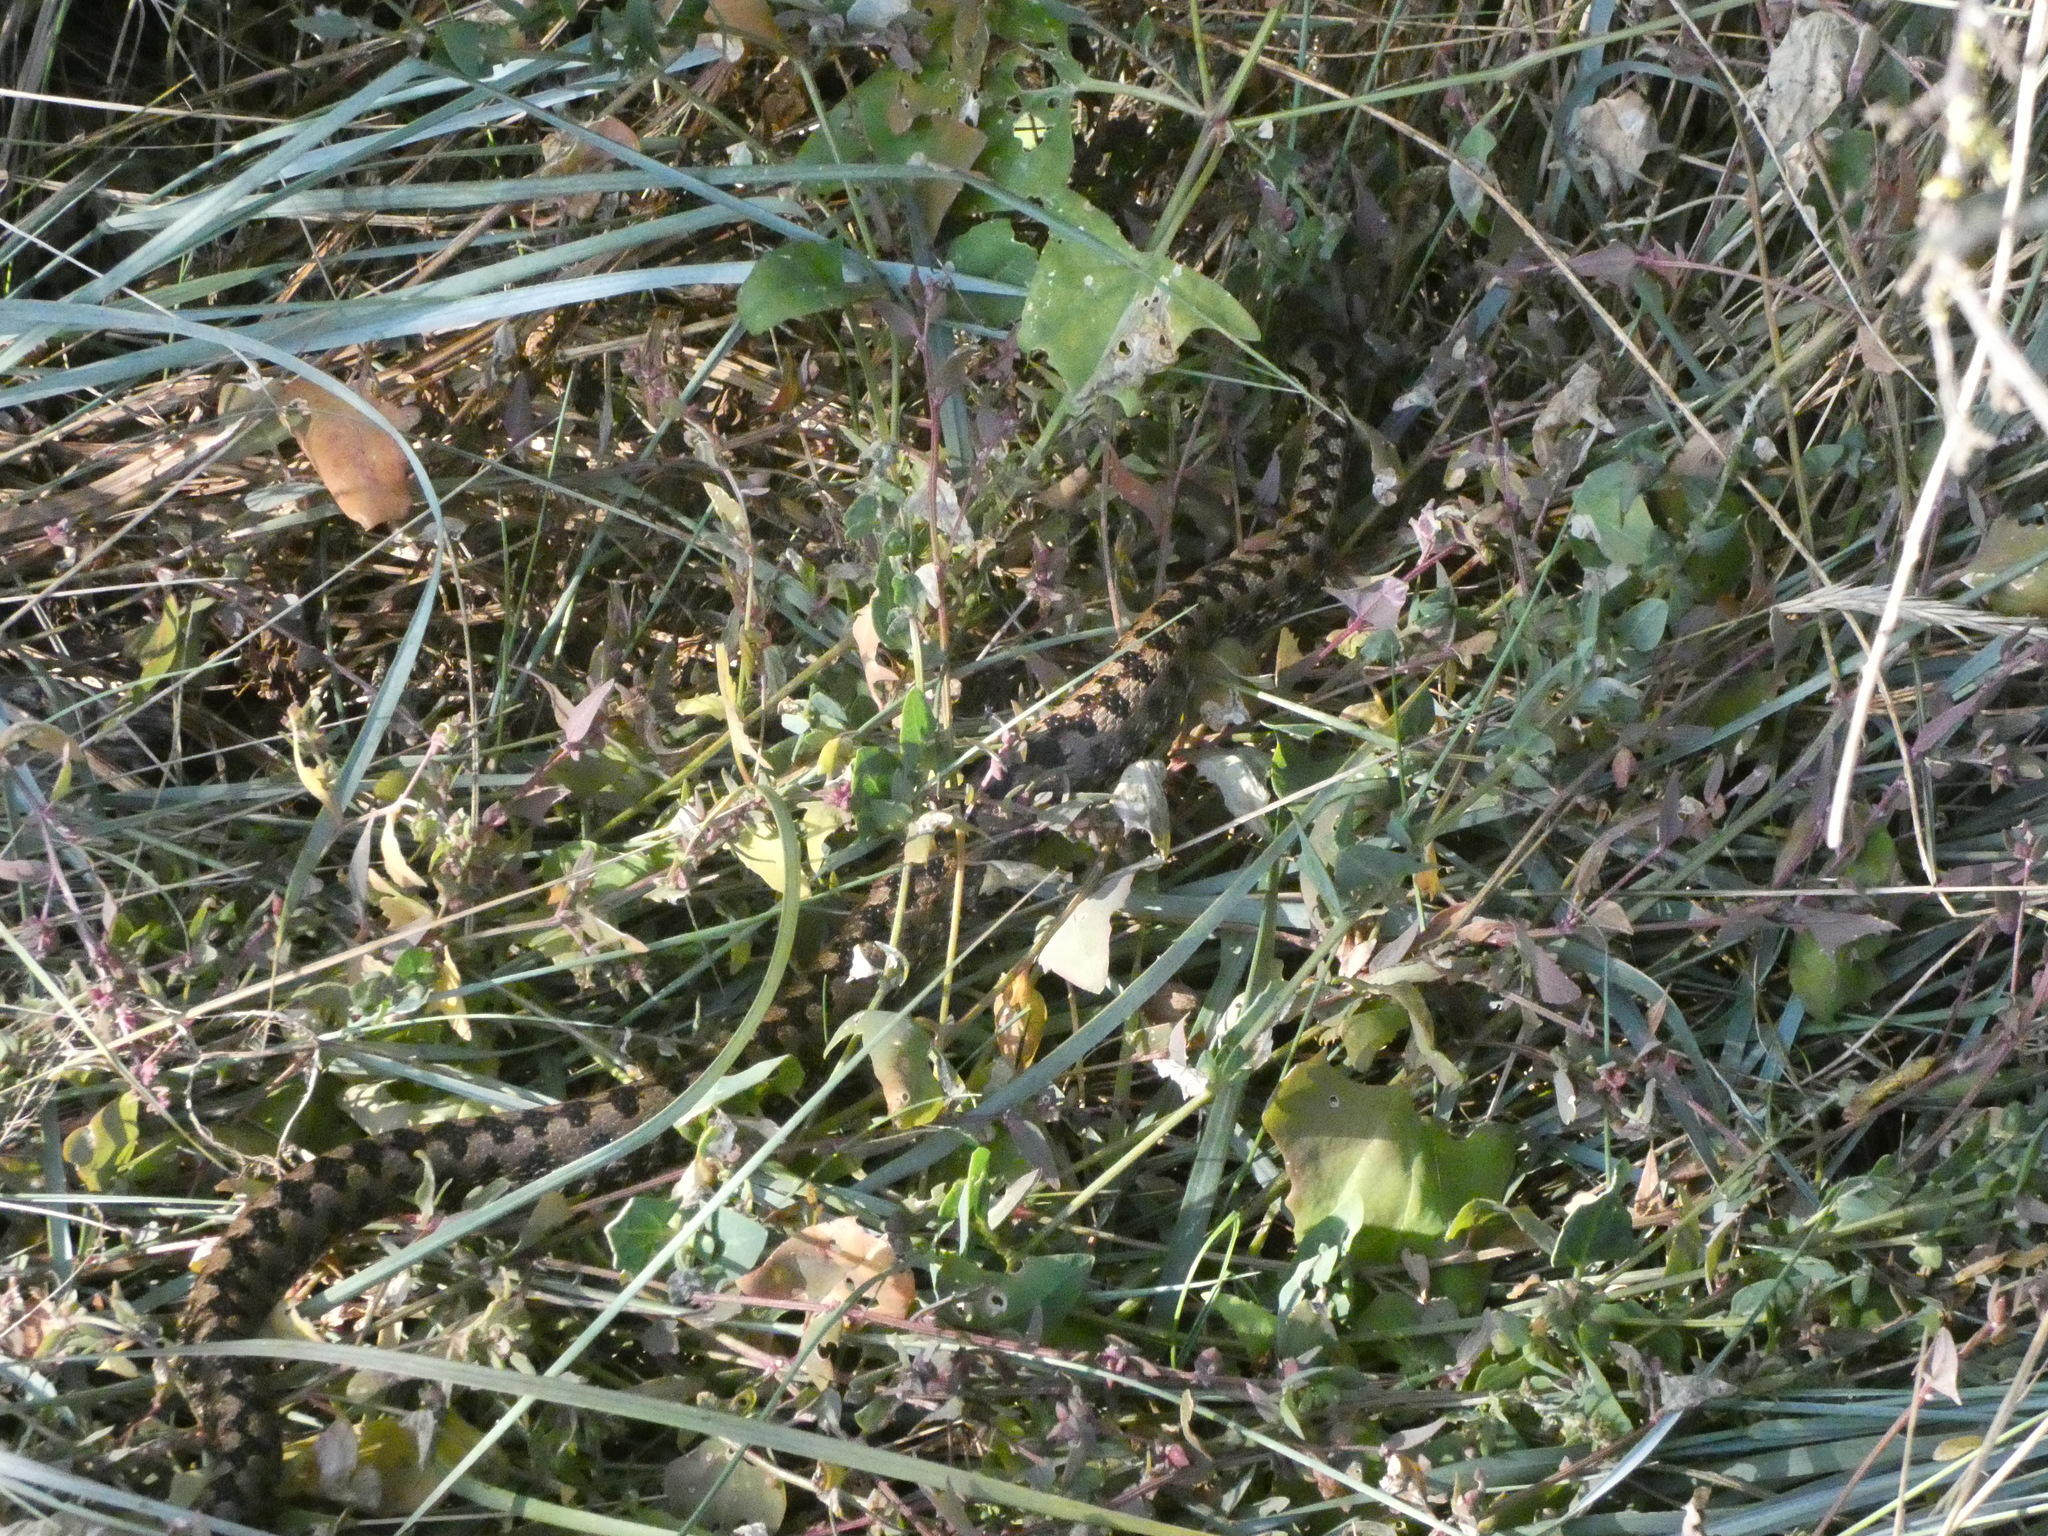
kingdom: Animalia
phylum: Chordata
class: Squamata
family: Viperidae
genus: Vipera
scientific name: Vipera aspis
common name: Asp viper
